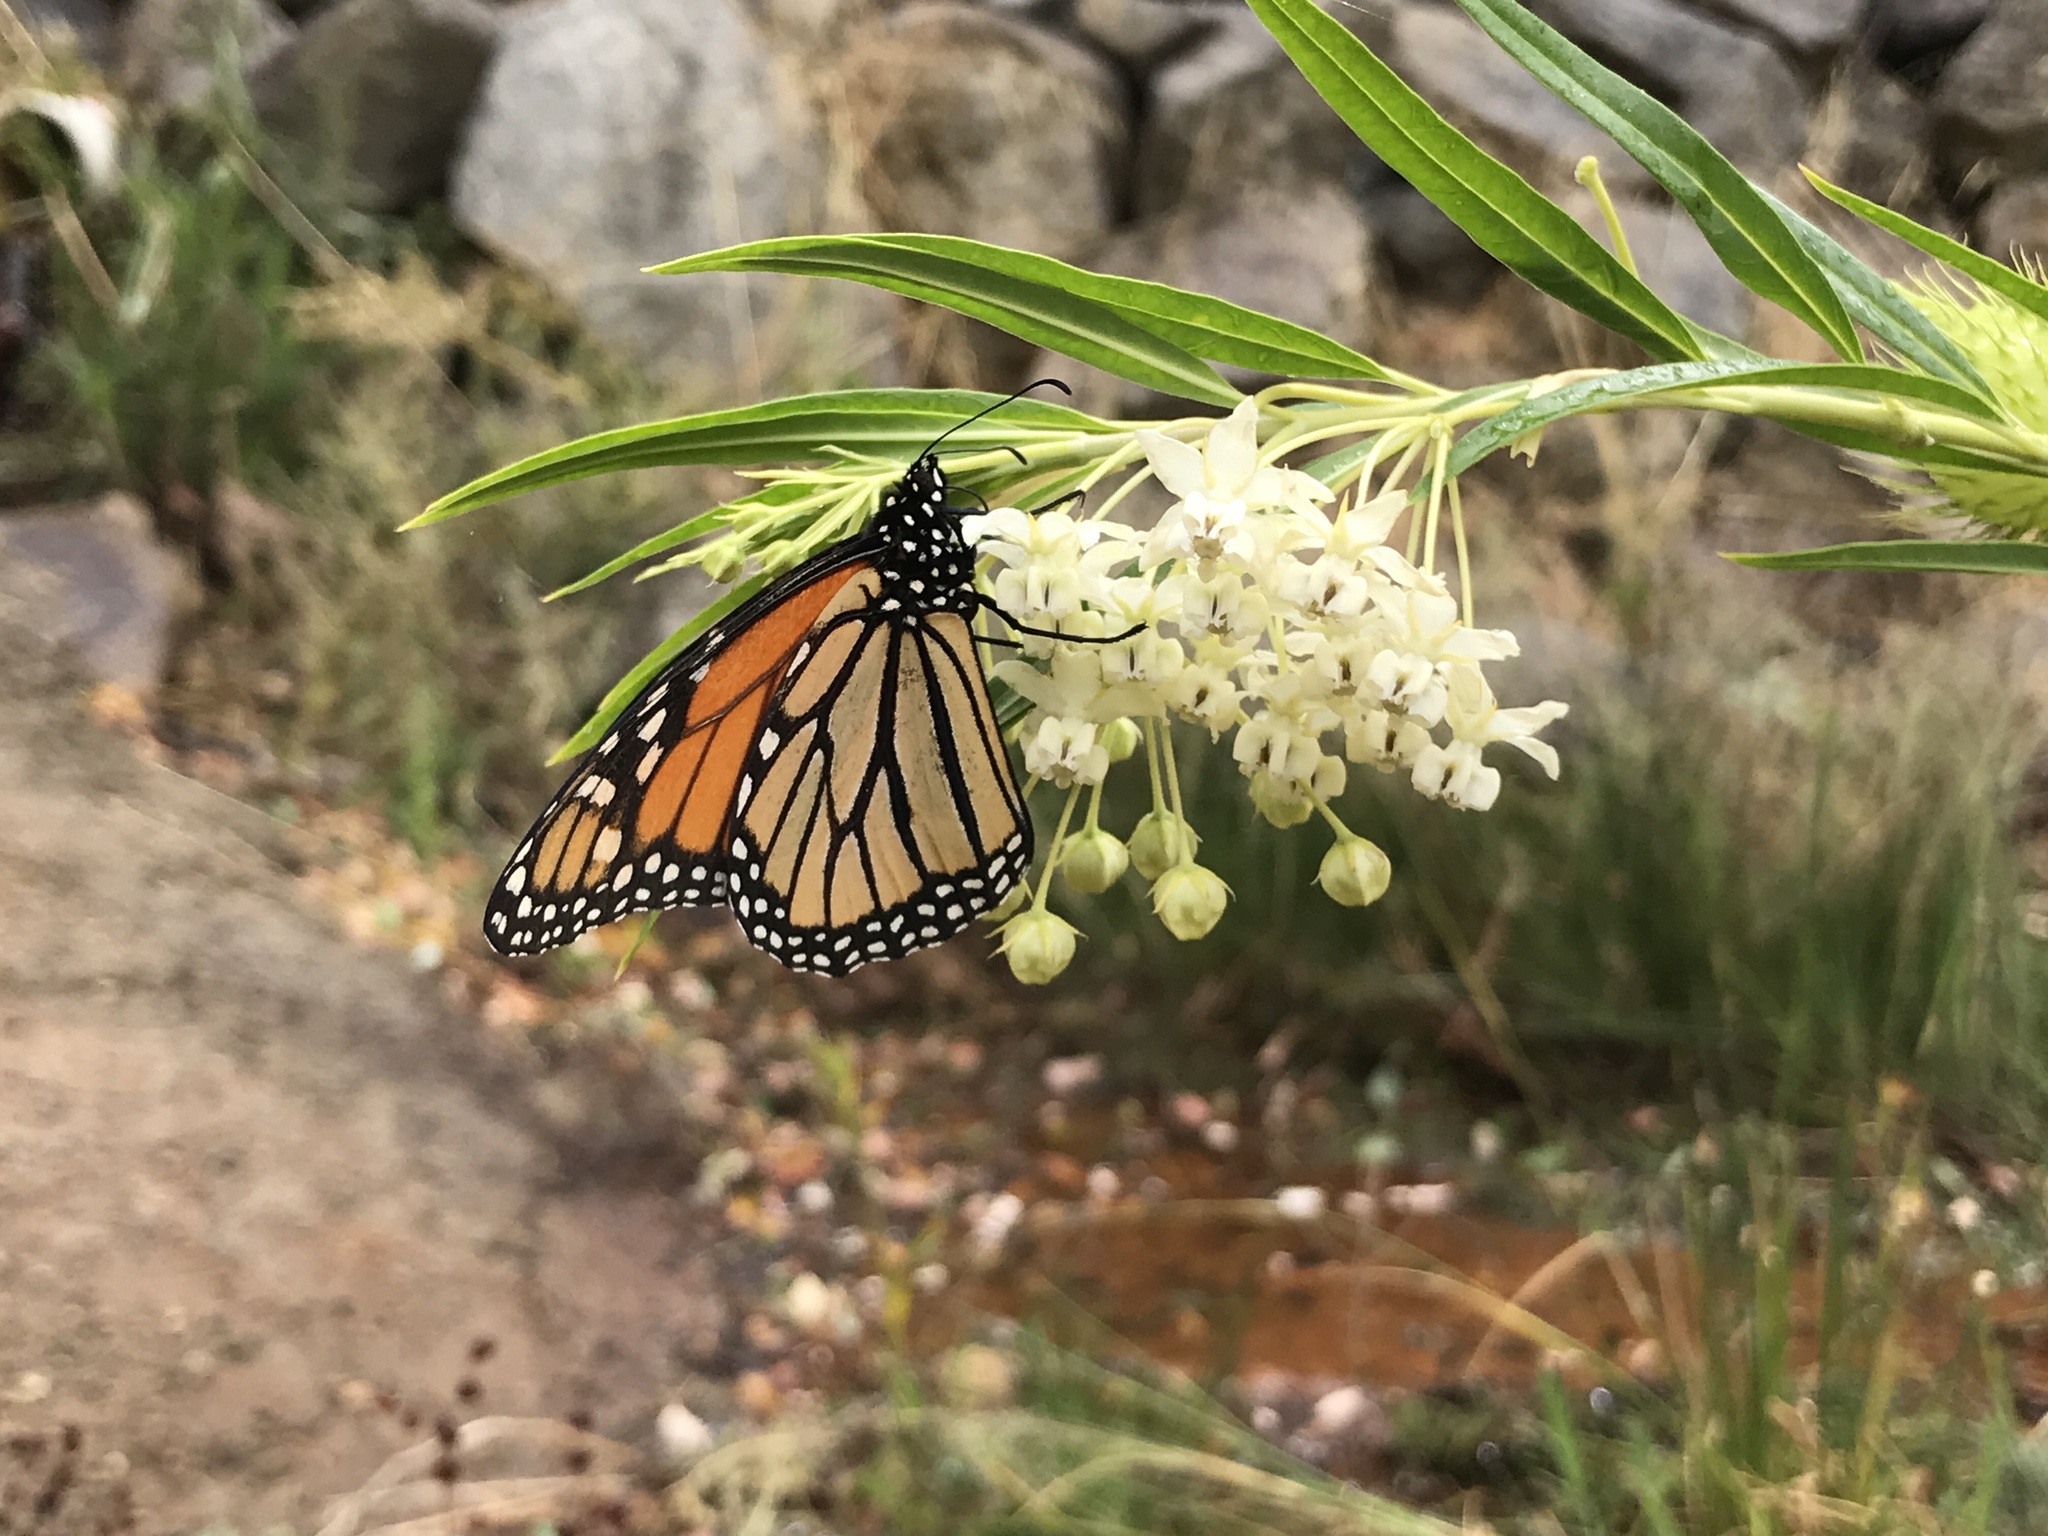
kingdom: Animalia
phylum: Arthropoda
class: Insecta
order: Lepidoptera
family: Nymphalidae
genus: Danaus
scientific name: Danaus plexippus
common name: Monarch
